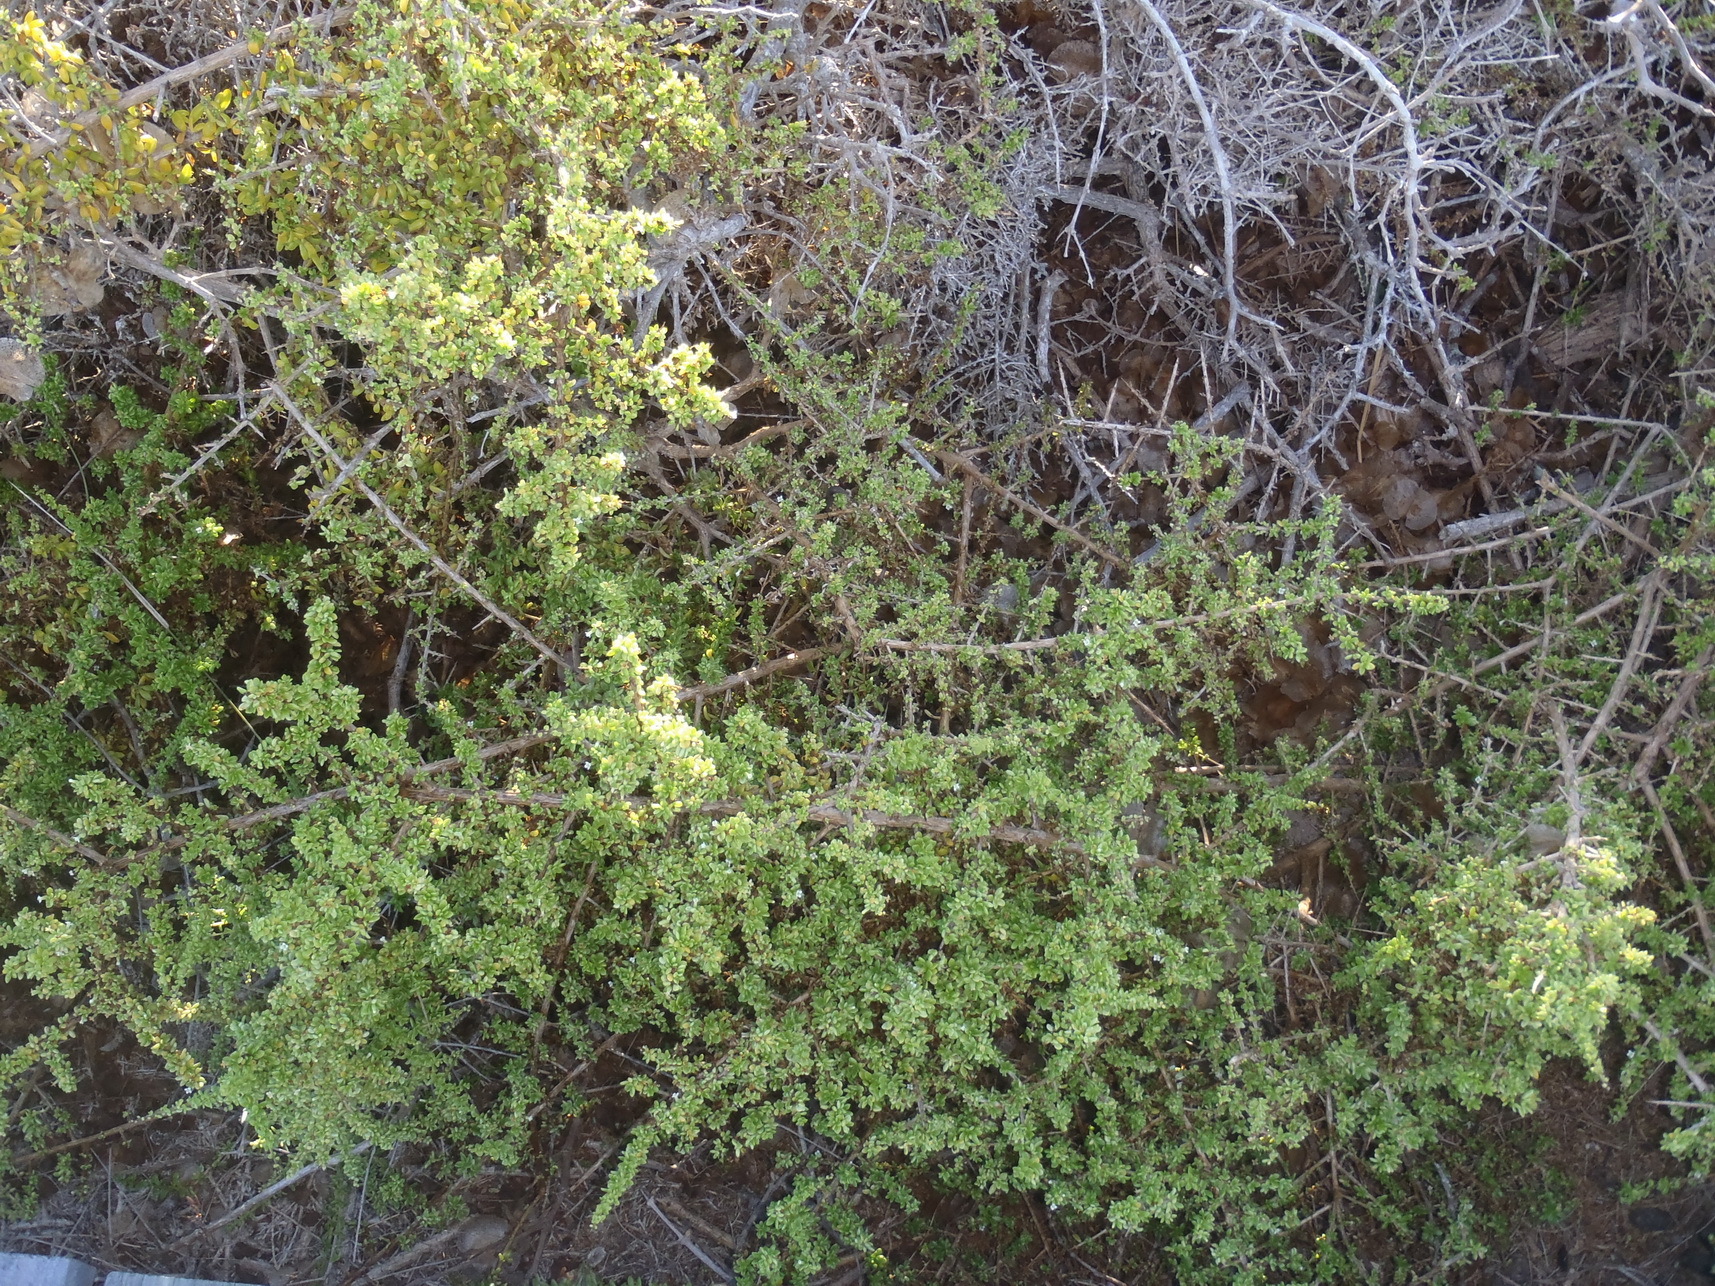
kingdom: Plantae
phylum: Tracheophyta
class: Magnoliopsida
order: Solanales
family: Solanaceae
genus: Lycium
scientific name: Lycium tetrandrum
